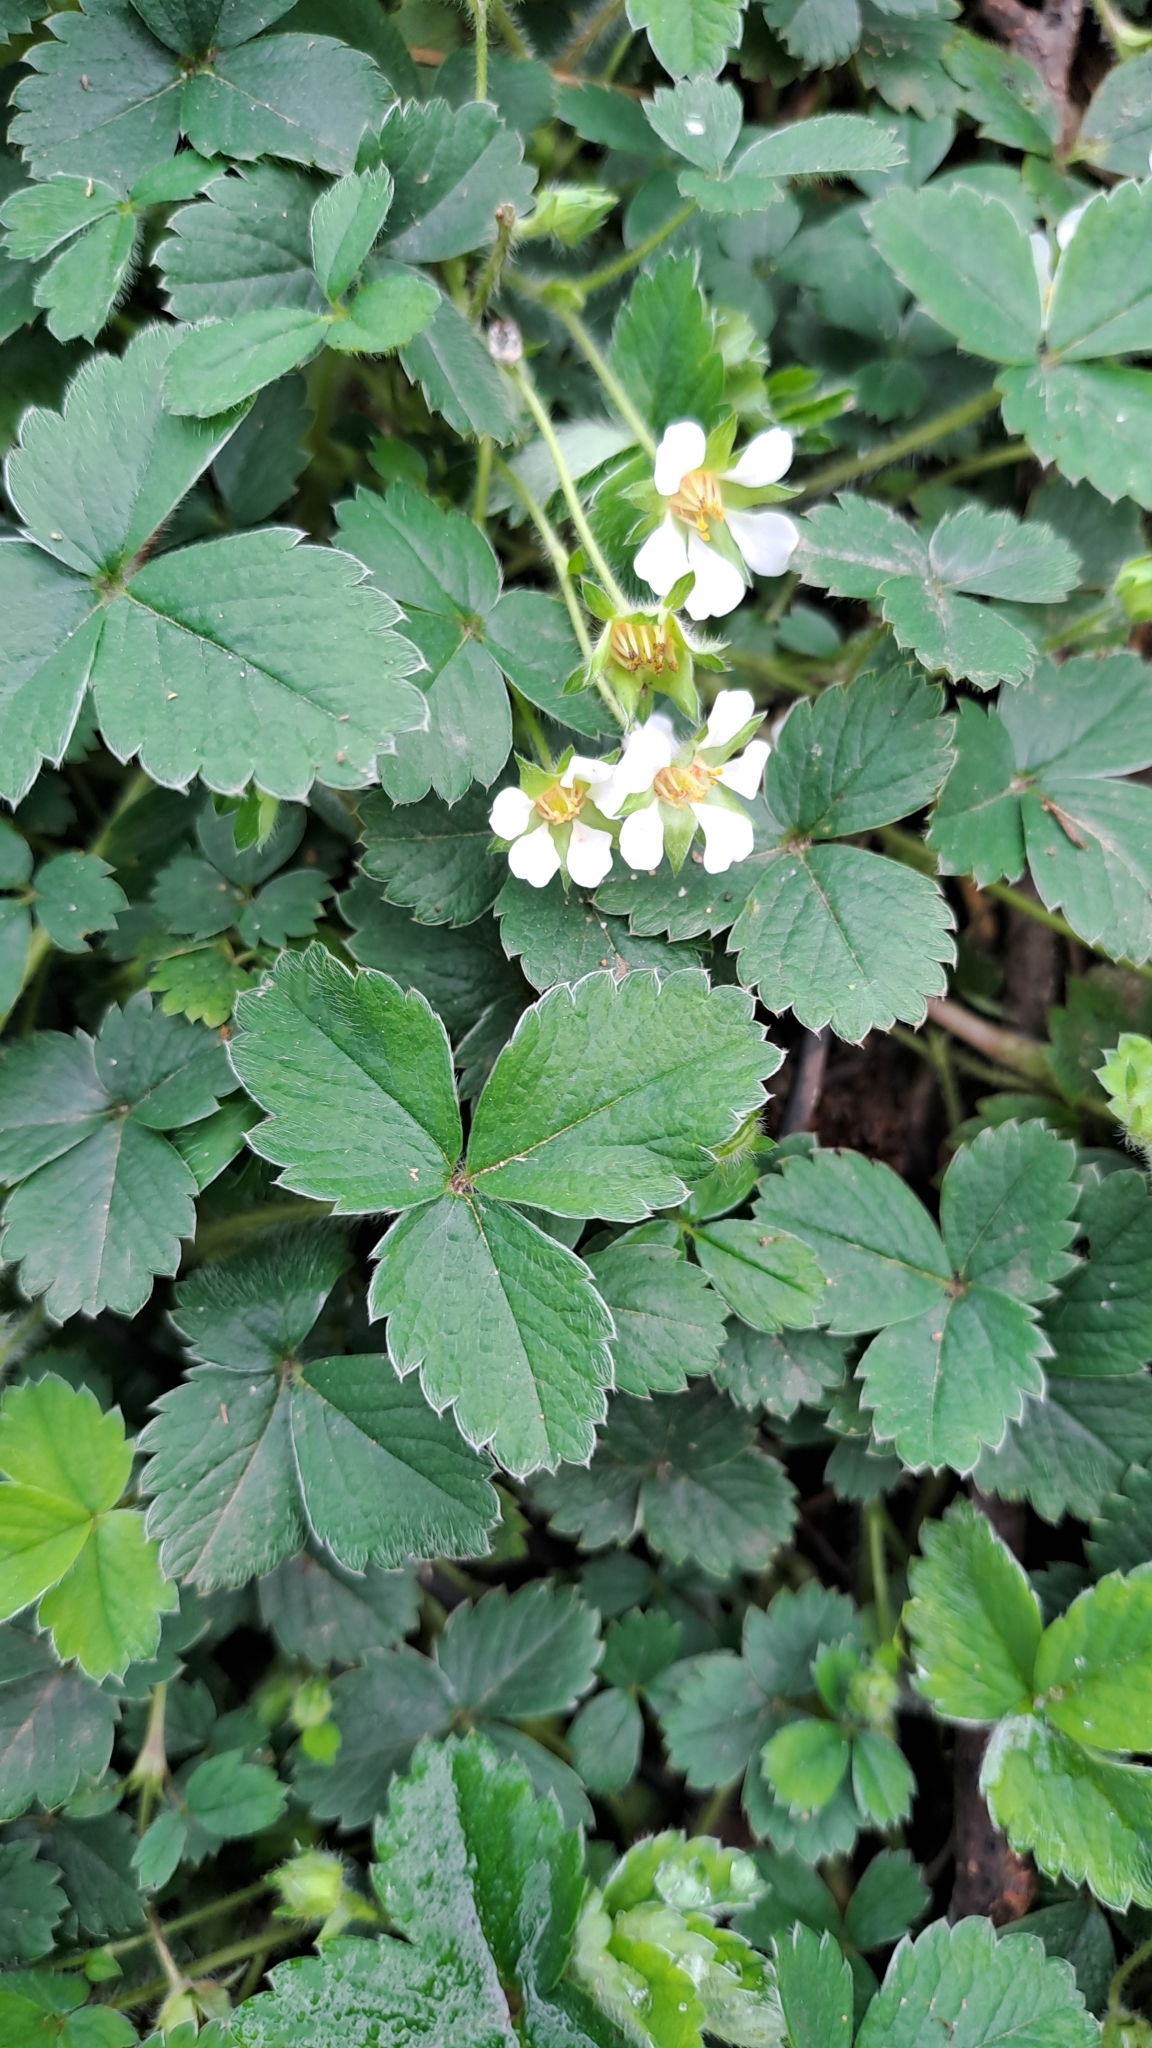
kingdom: Plantae
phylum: Tracheophyta
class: Magnoliopsida
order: Rosales
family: Rosaceae
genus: Potentilla
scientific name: Potentilla sterilis
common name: Barren strawberry
